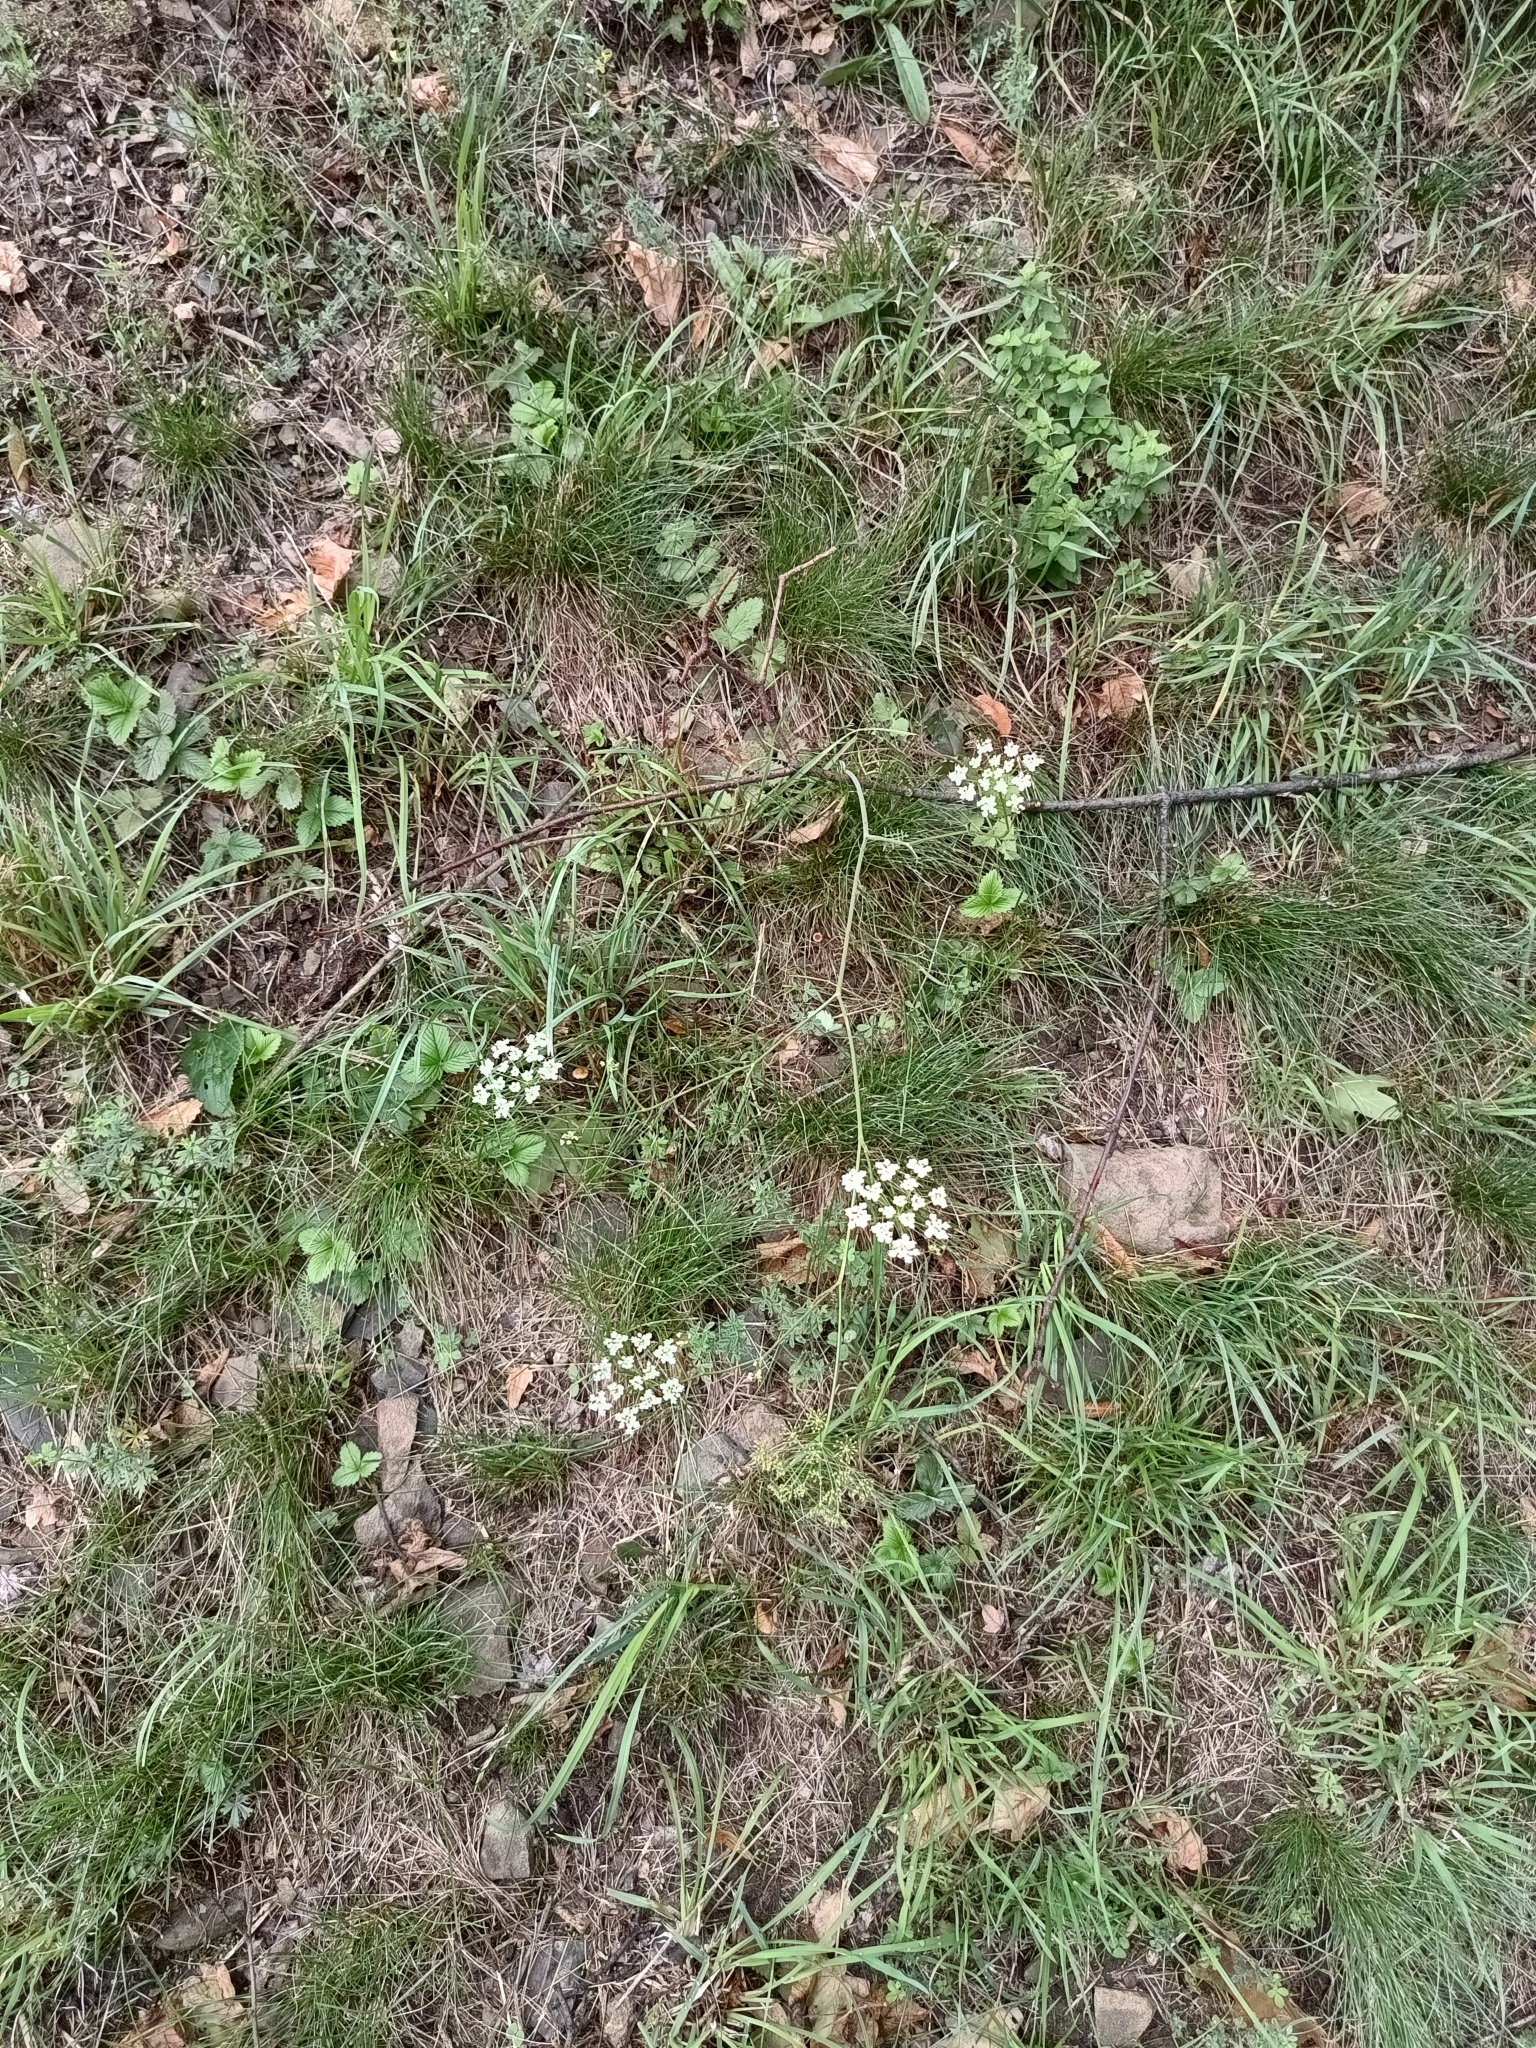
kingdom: Plantae
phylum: Tracheophyta
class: Magnoliopsida
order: Apiales
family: Apiaceae
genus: Pimpinella
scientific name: Pimpinella saxifraga
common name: Burnet-saxifrage
